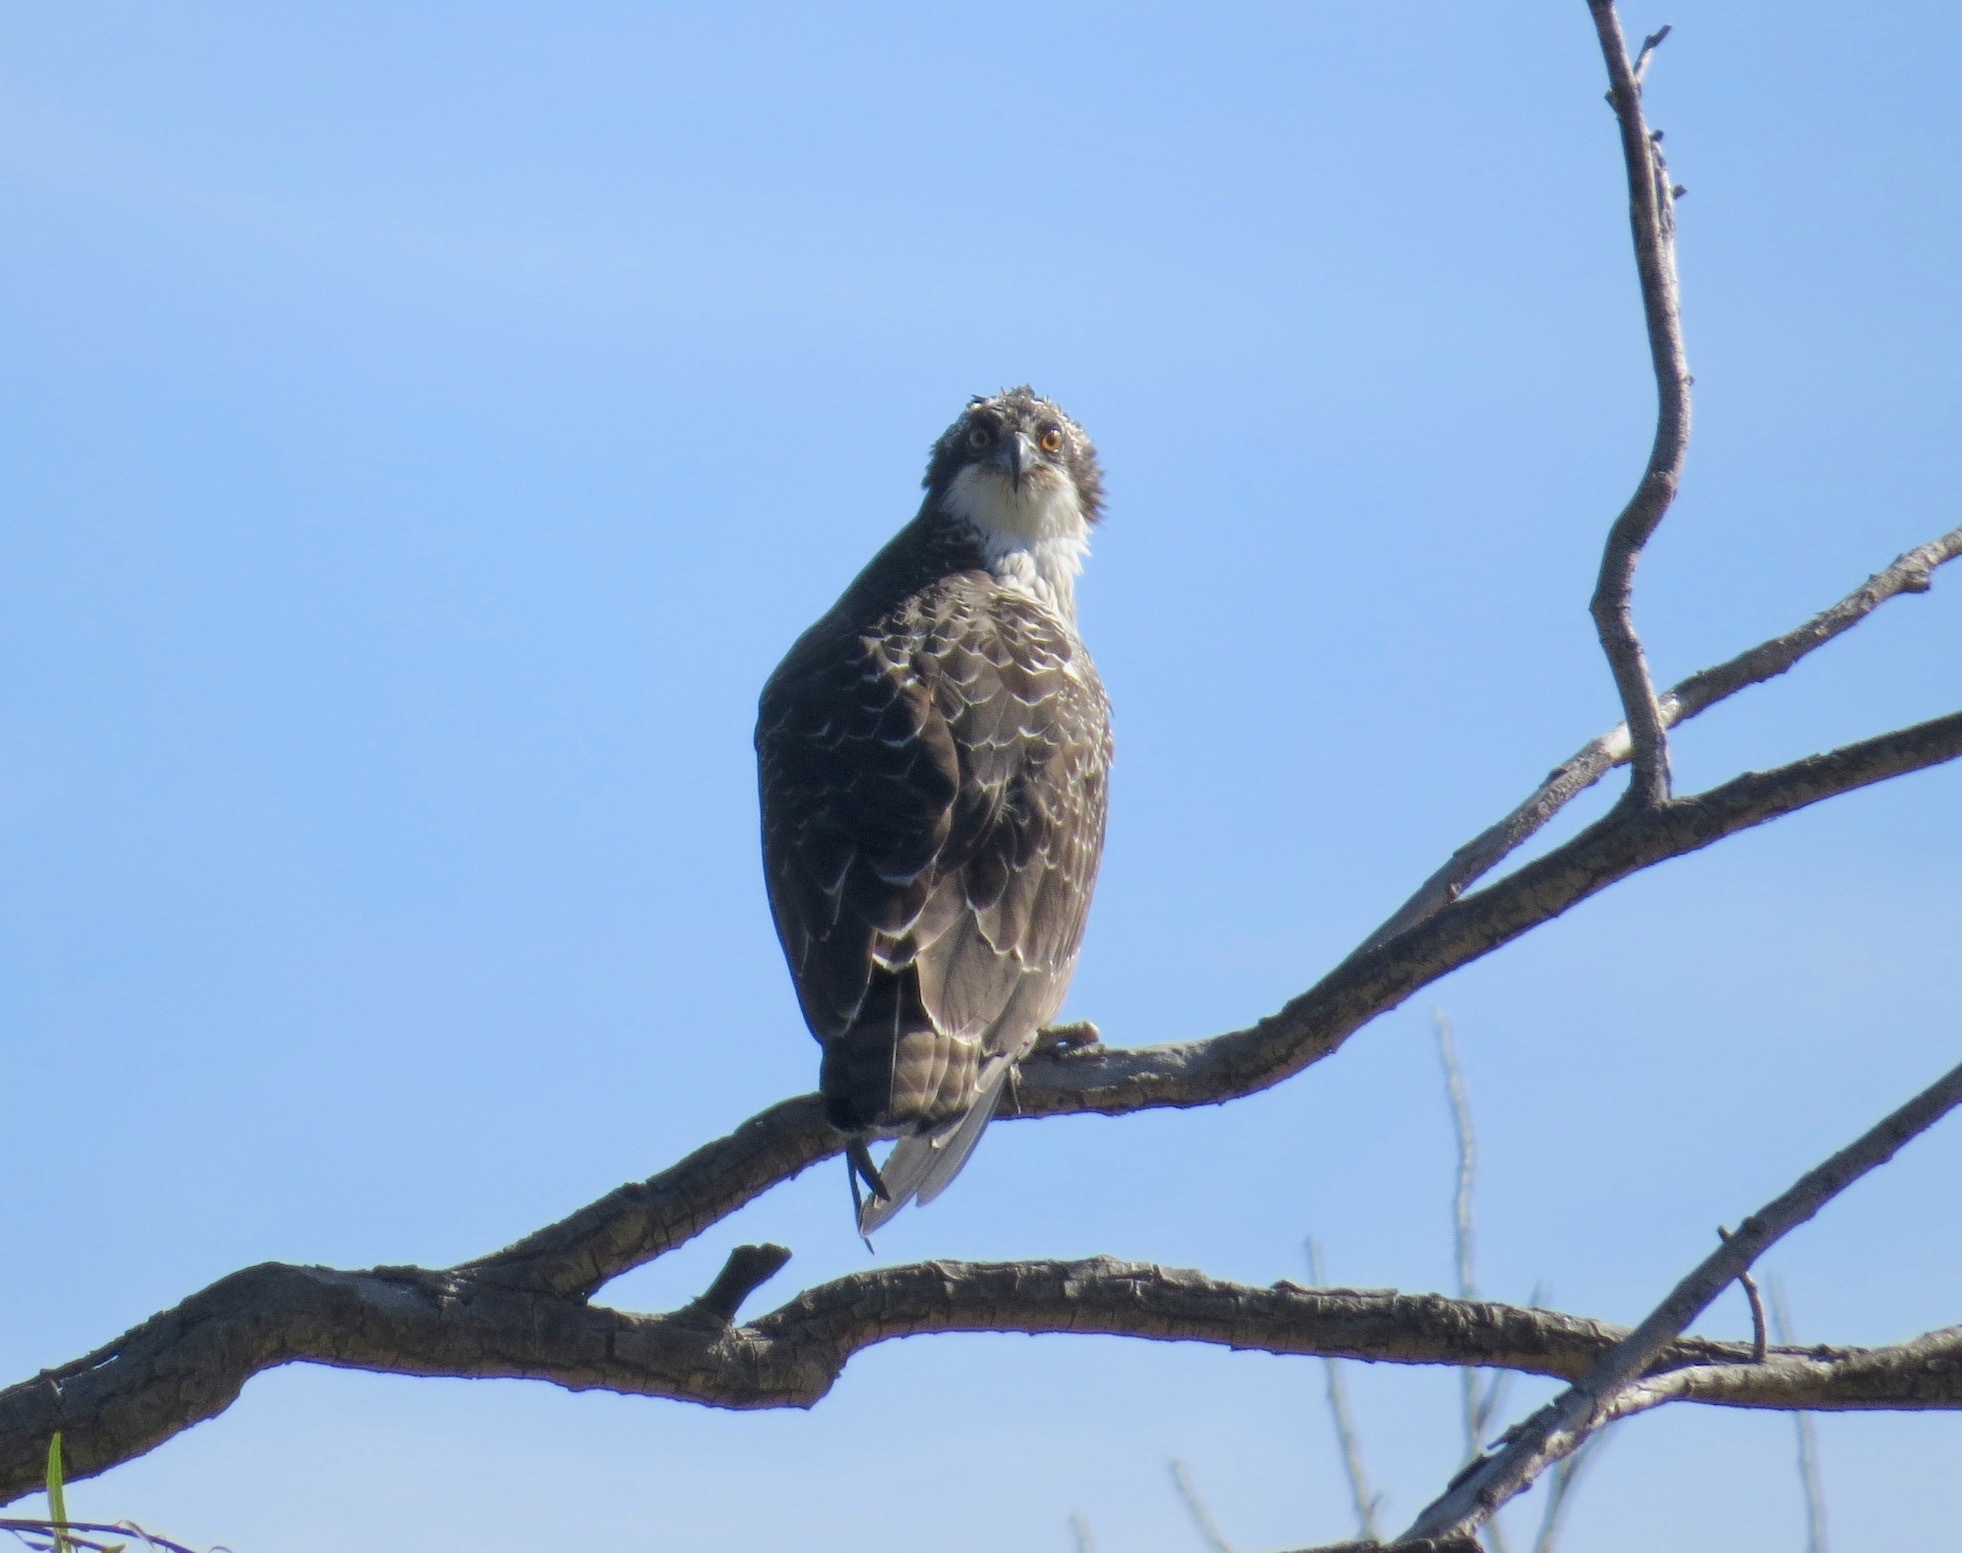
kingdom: Animalia
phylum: Chordata
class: Aves
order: Accipitriformes
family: Pandionidae
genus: Pandion
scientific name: Pandion haliaetus
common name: Osprey
